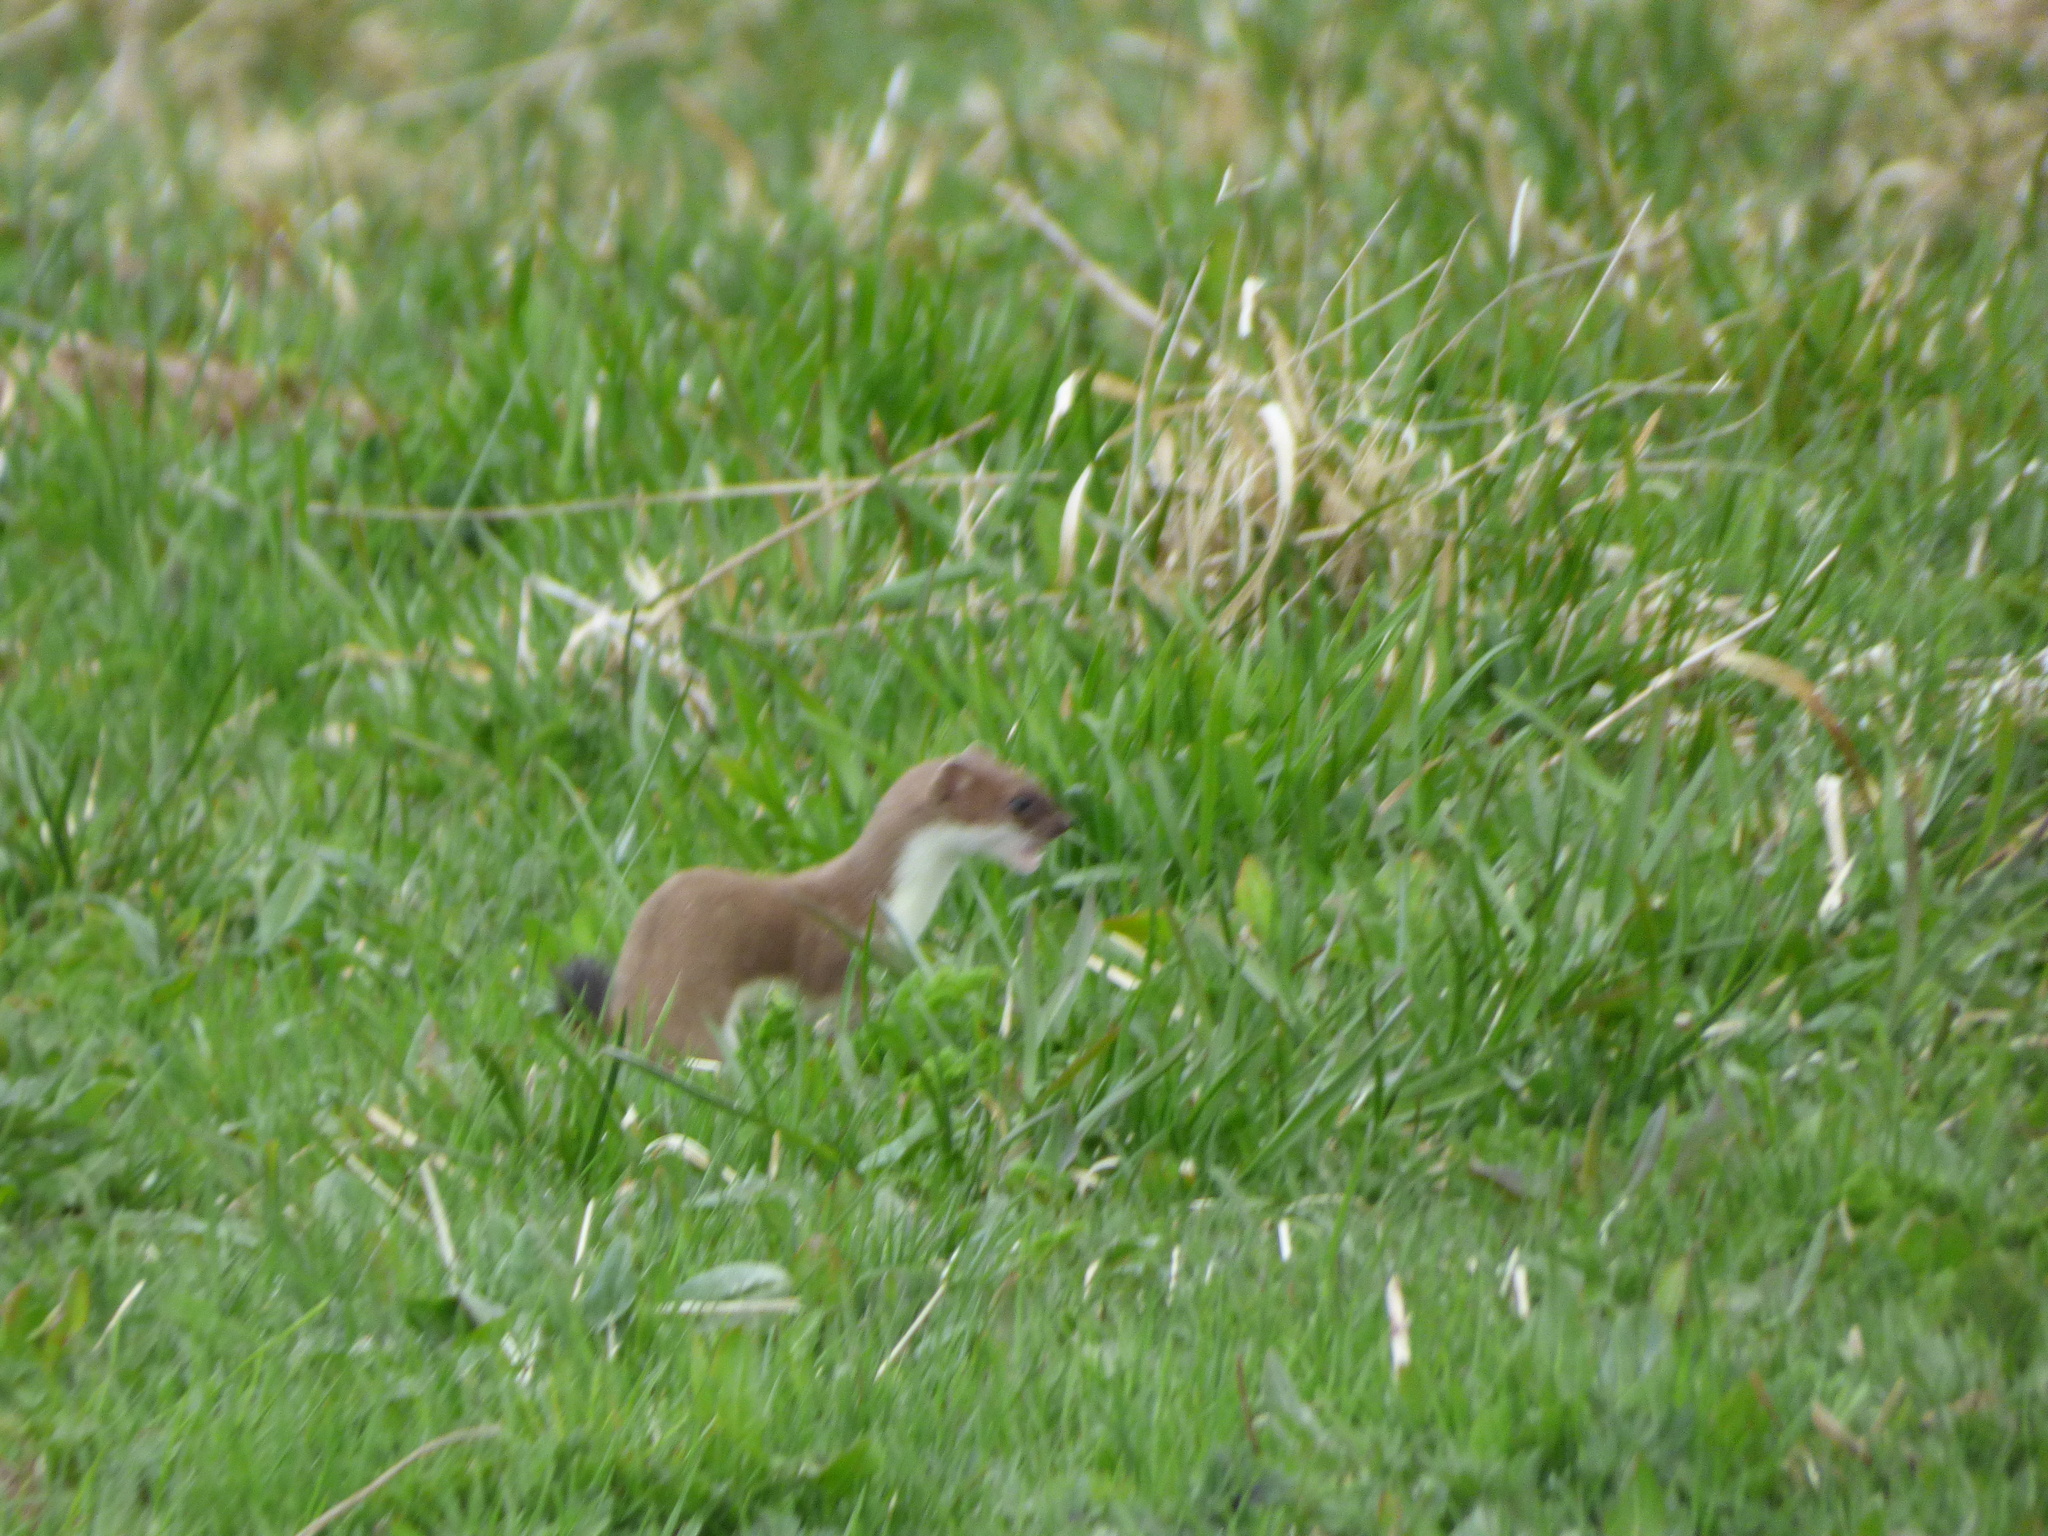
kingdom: Animalia
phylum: Chordata
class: Mammalia
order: Carnivora
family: Mustelidae
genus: Mustela
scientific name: Mustela erminea
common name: Stoat
